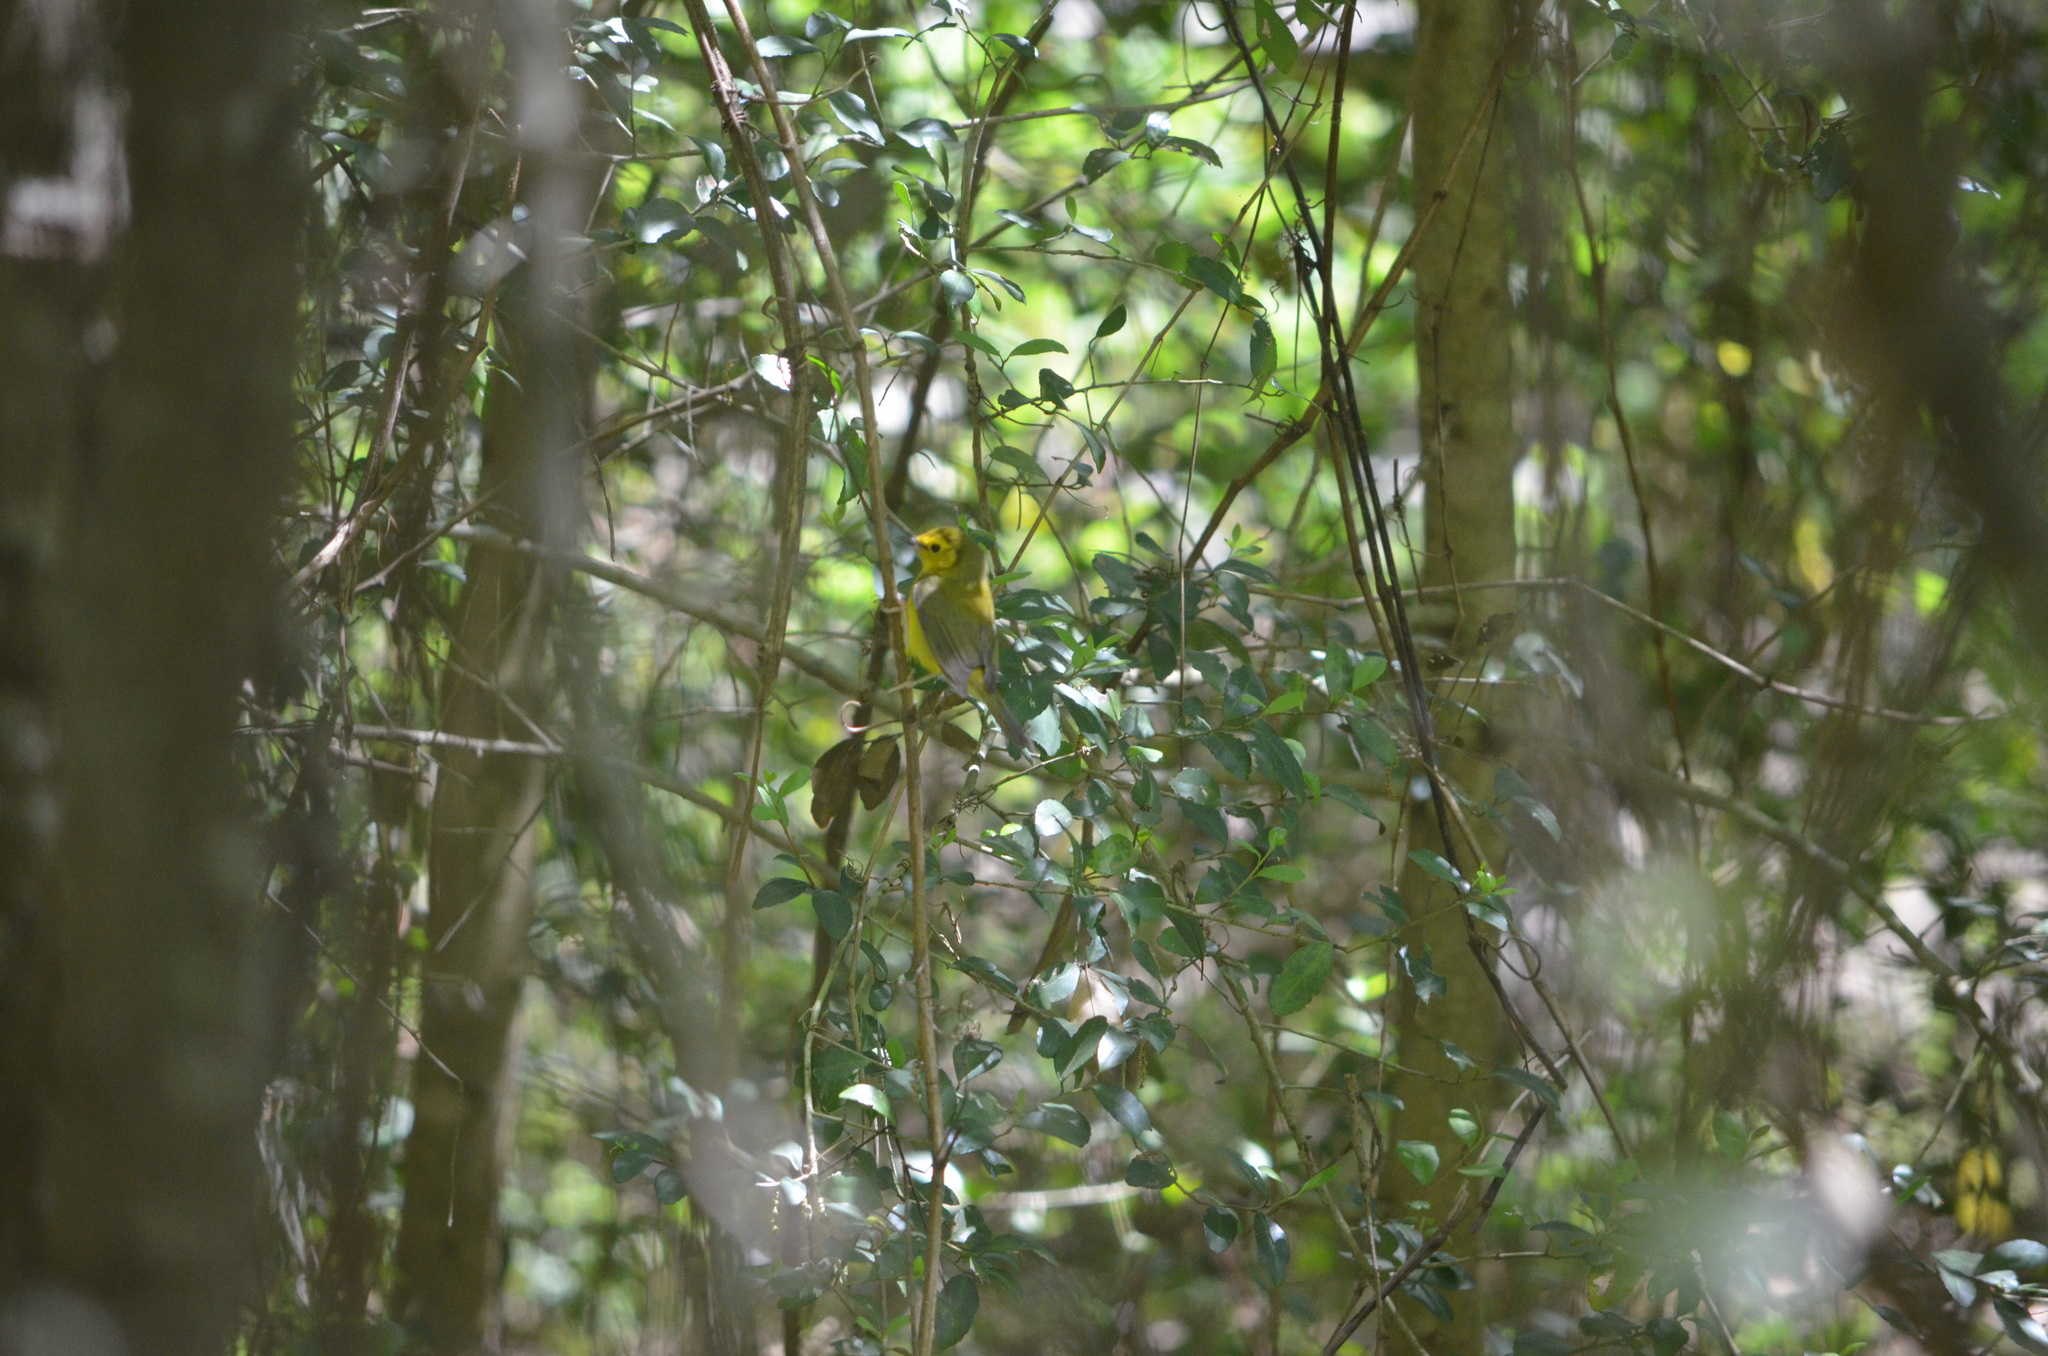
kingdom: Animalia
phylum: Chordata
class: Aves
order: Passeriformes
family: Parulidae
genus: Setophaga
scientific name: Setophaga citrina
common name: Hooded warbler
